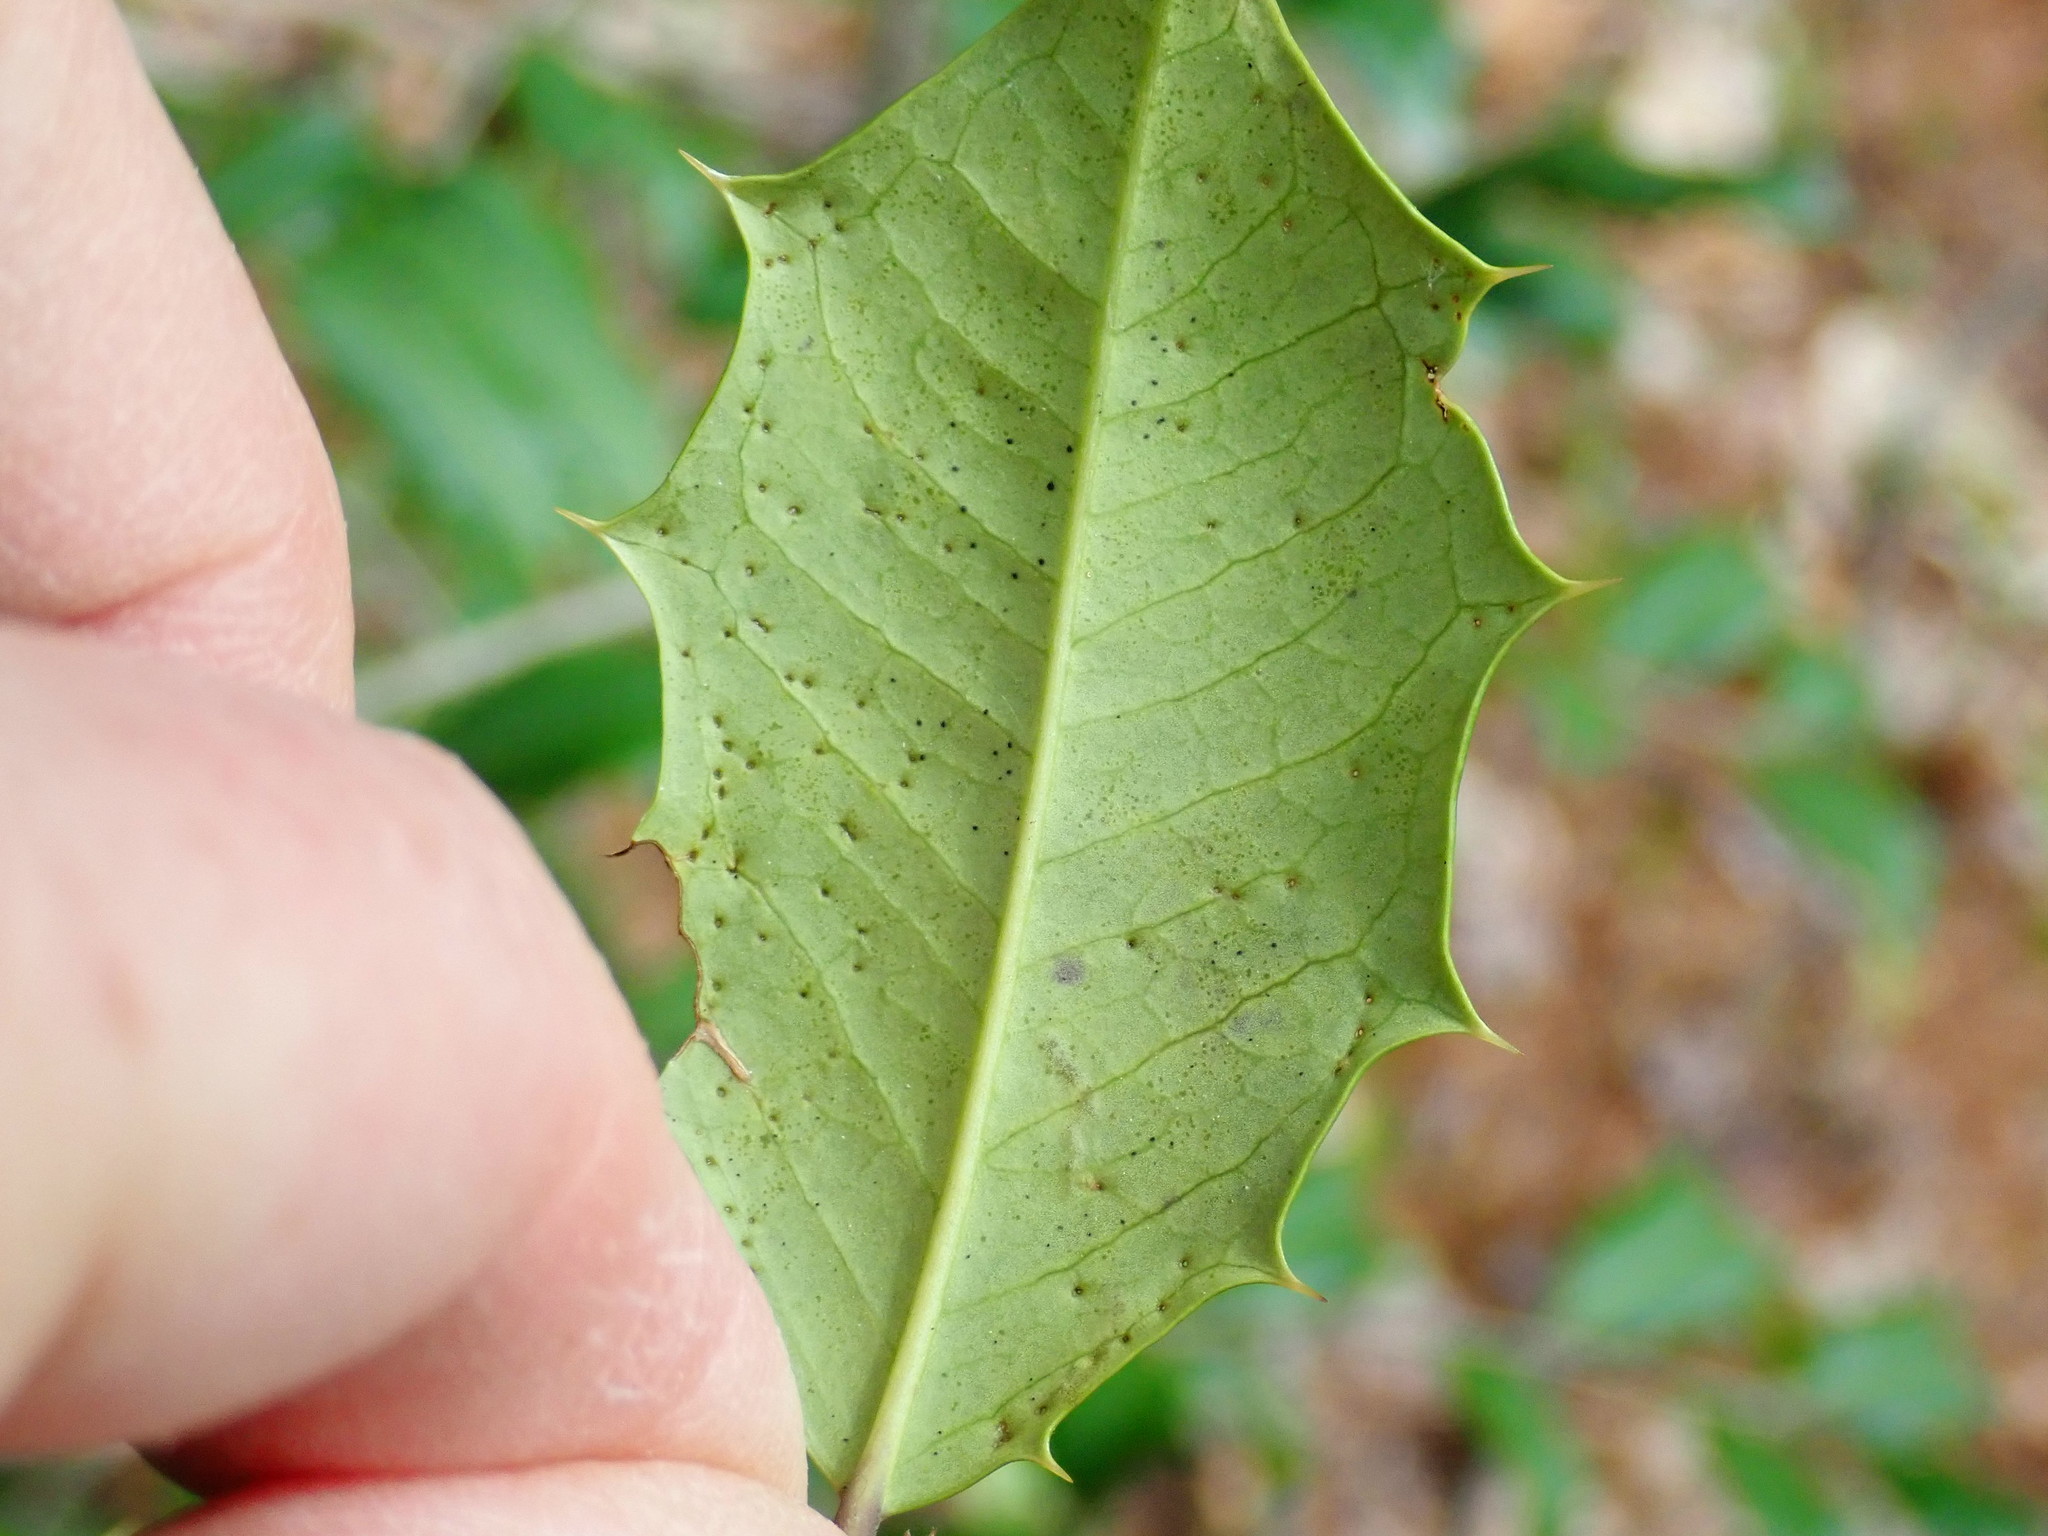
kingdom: Animalia
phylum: Arthropoda
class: Insecta
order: Diptera
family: Agromyzidae
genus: Phytomyza
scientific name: Phytomyza ilicicola
